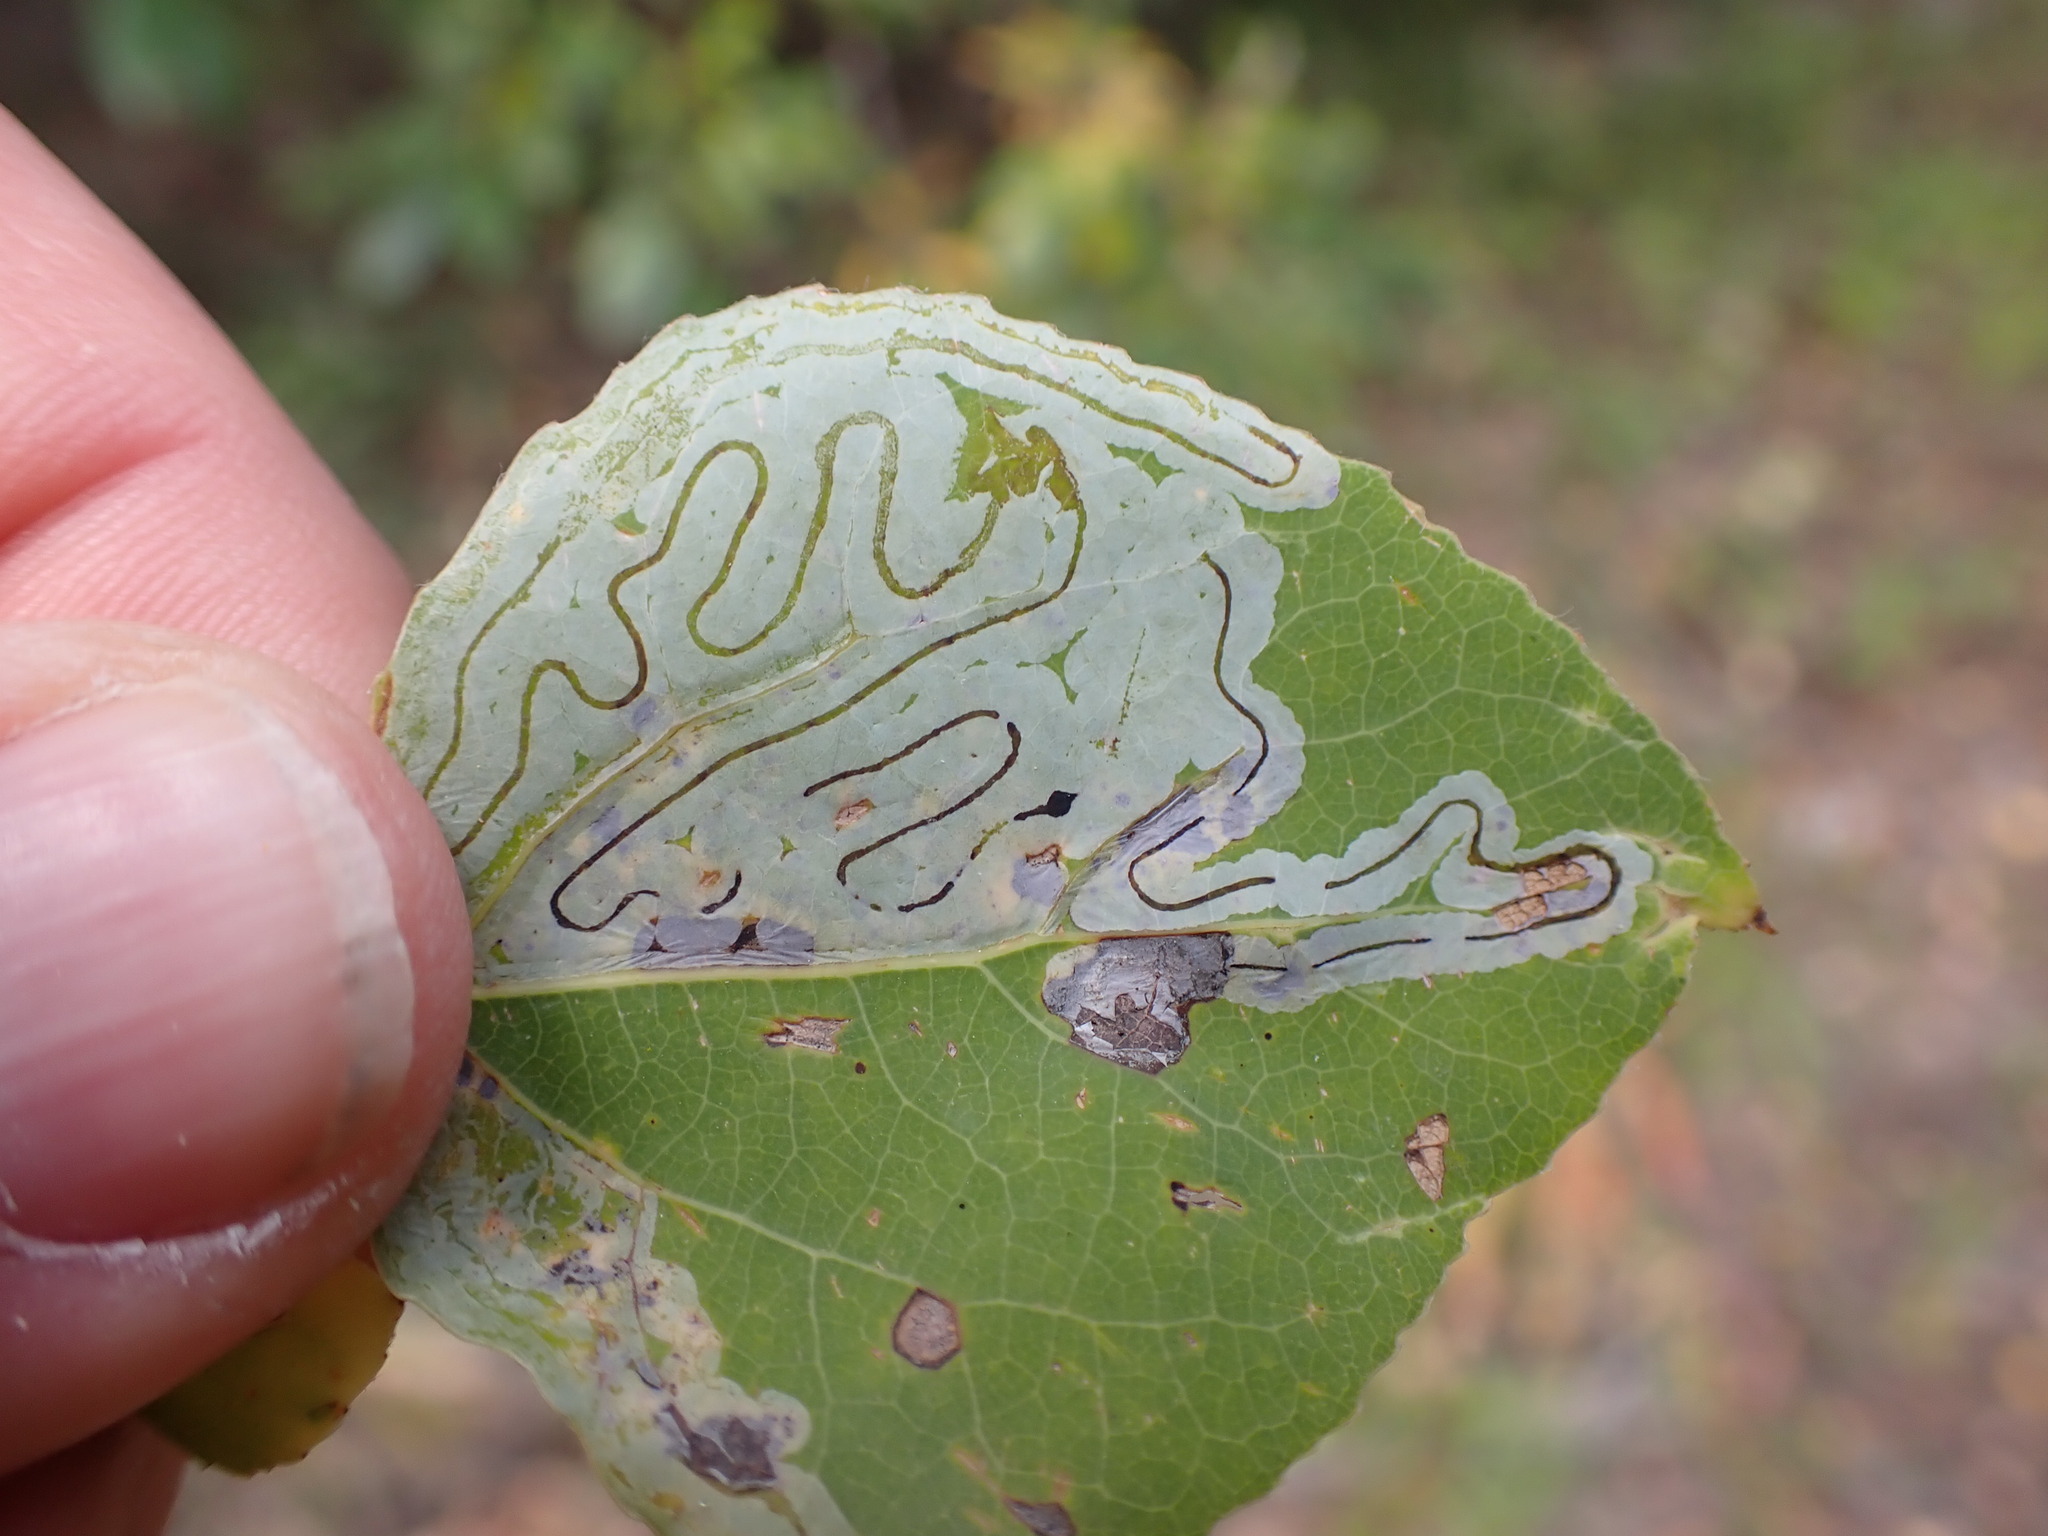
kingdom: Animalia
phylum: Arthropoda
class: Insecta
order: Lepidoptera
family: Gracillariidae
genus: Phyllocnistis
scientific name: Phyllocnistis populiella
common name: Aspen serpentine leafminer moth
